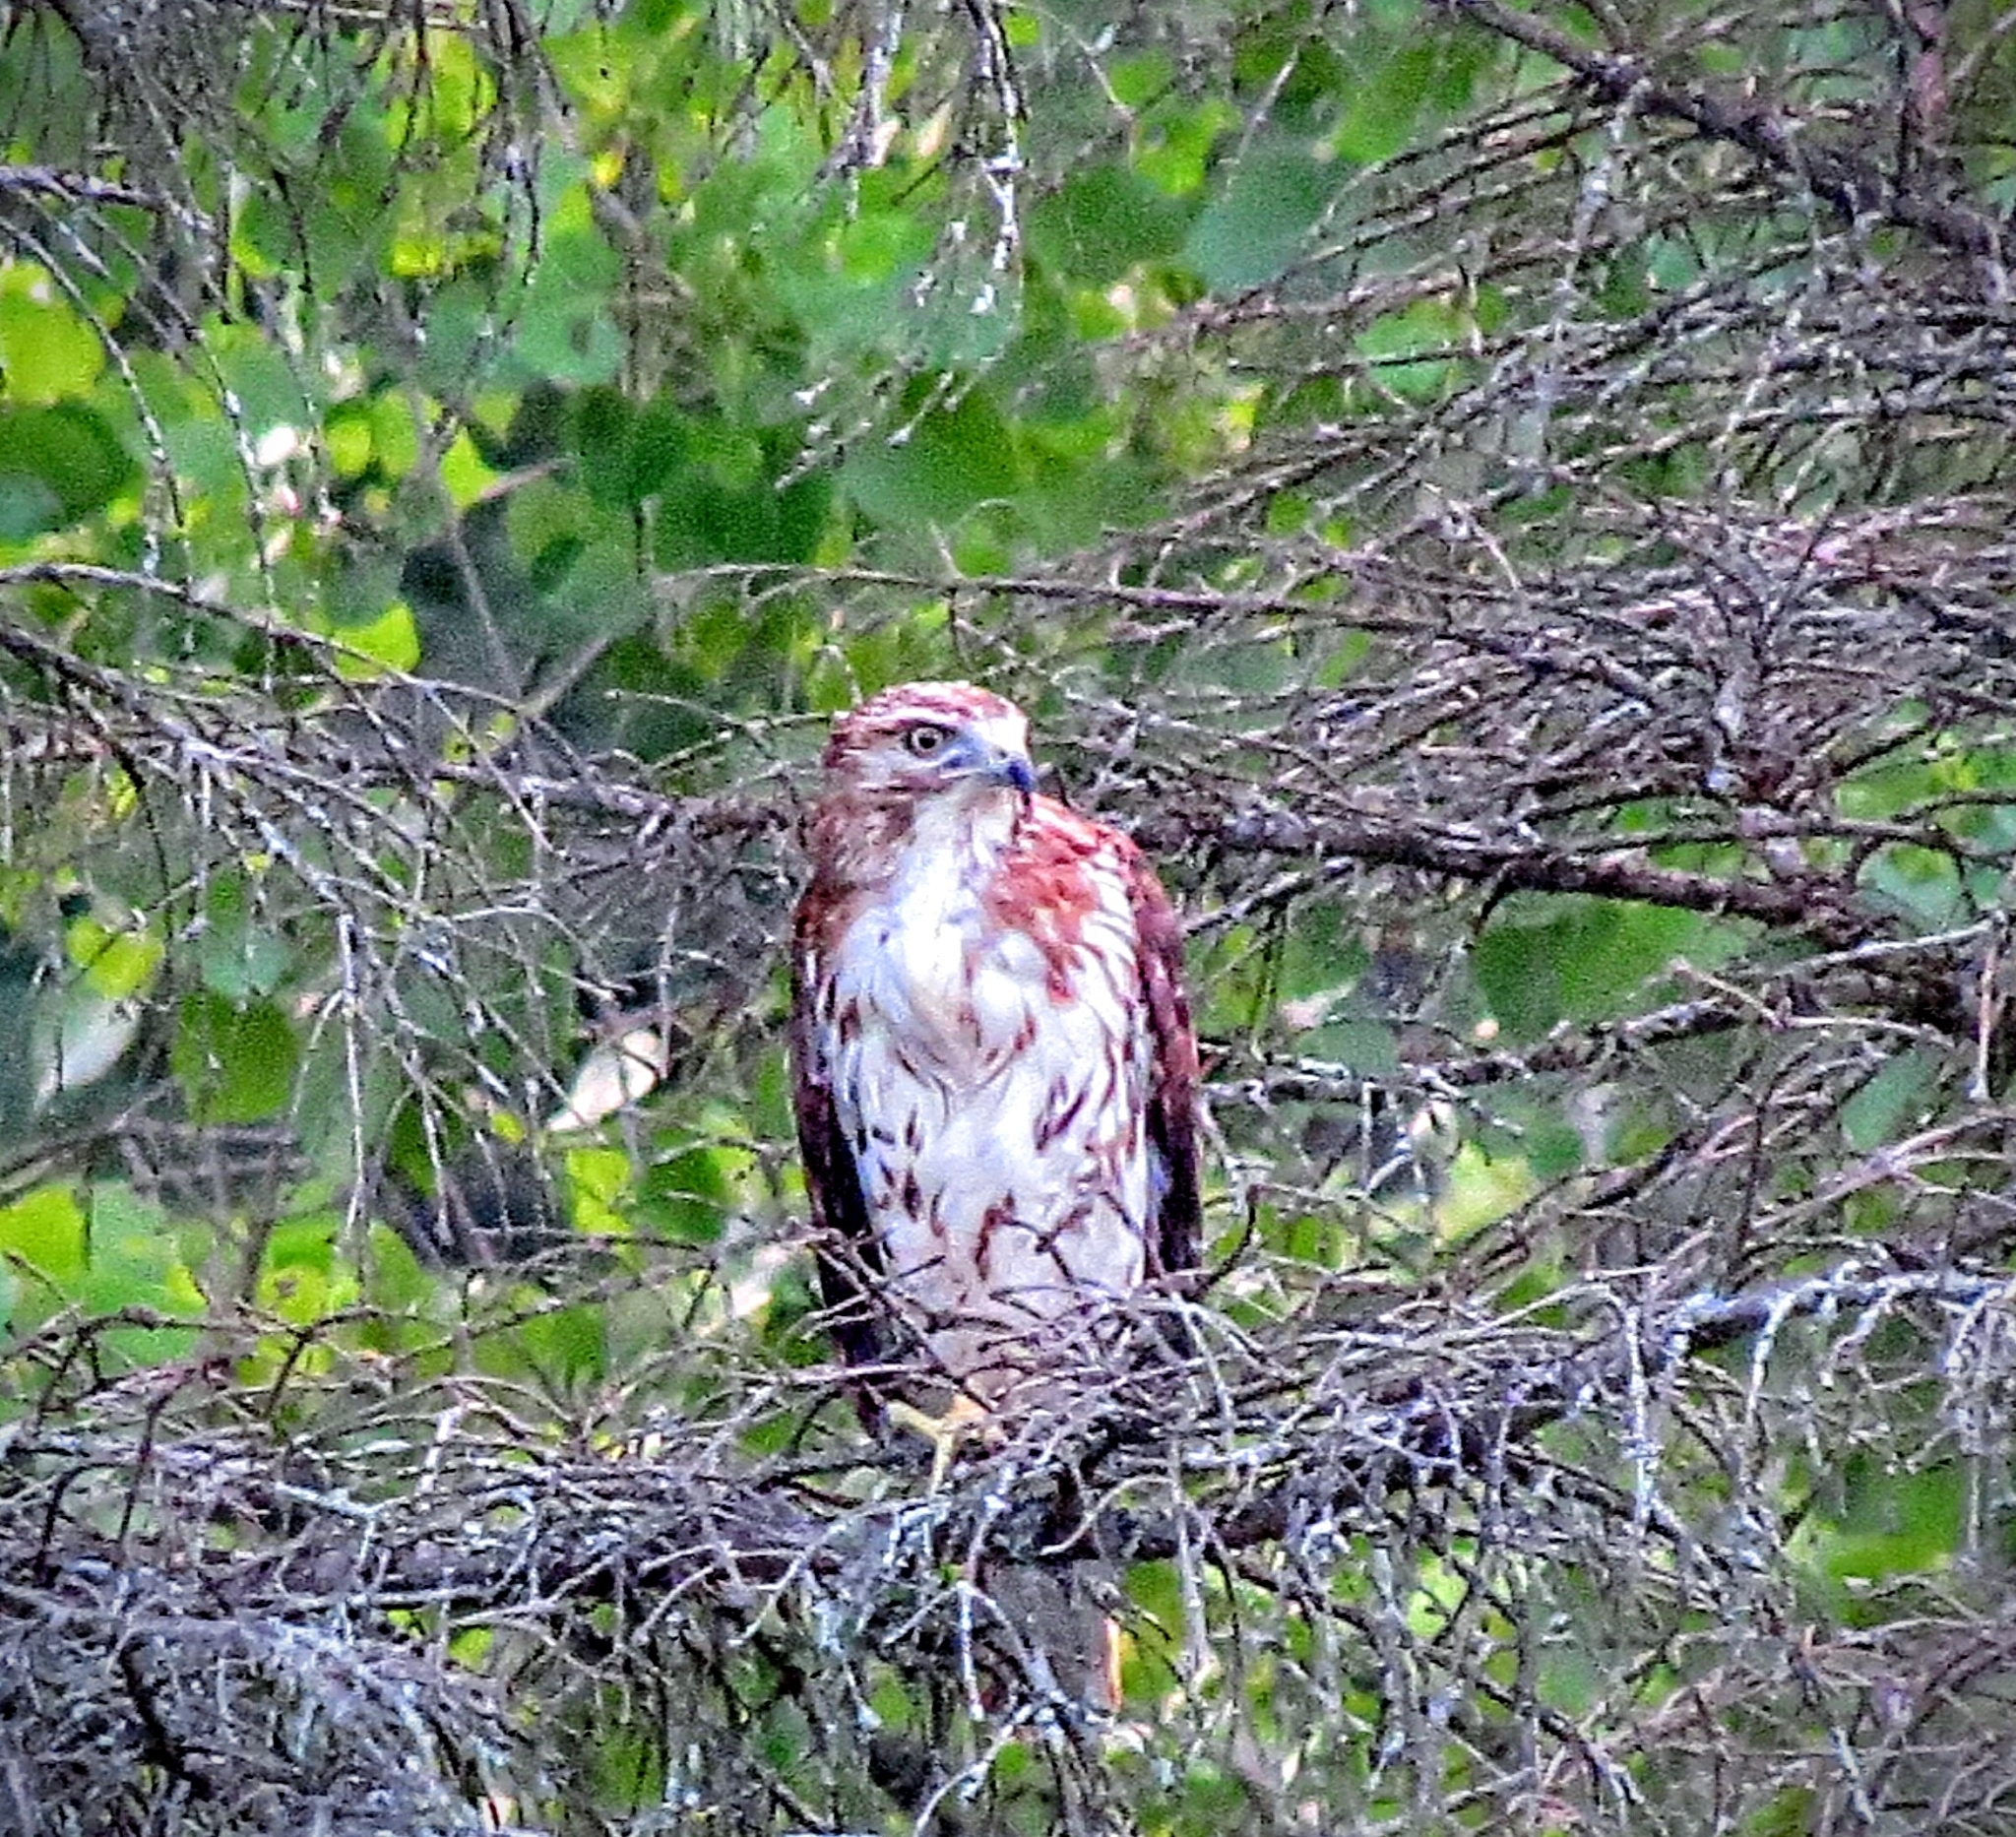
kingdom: Animalia
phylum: Chordata
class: Aves
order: Accipitriformes
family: Accipitridae
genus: Buteo
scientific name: Buteo jamaicensis
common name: Red-tailed hawk
